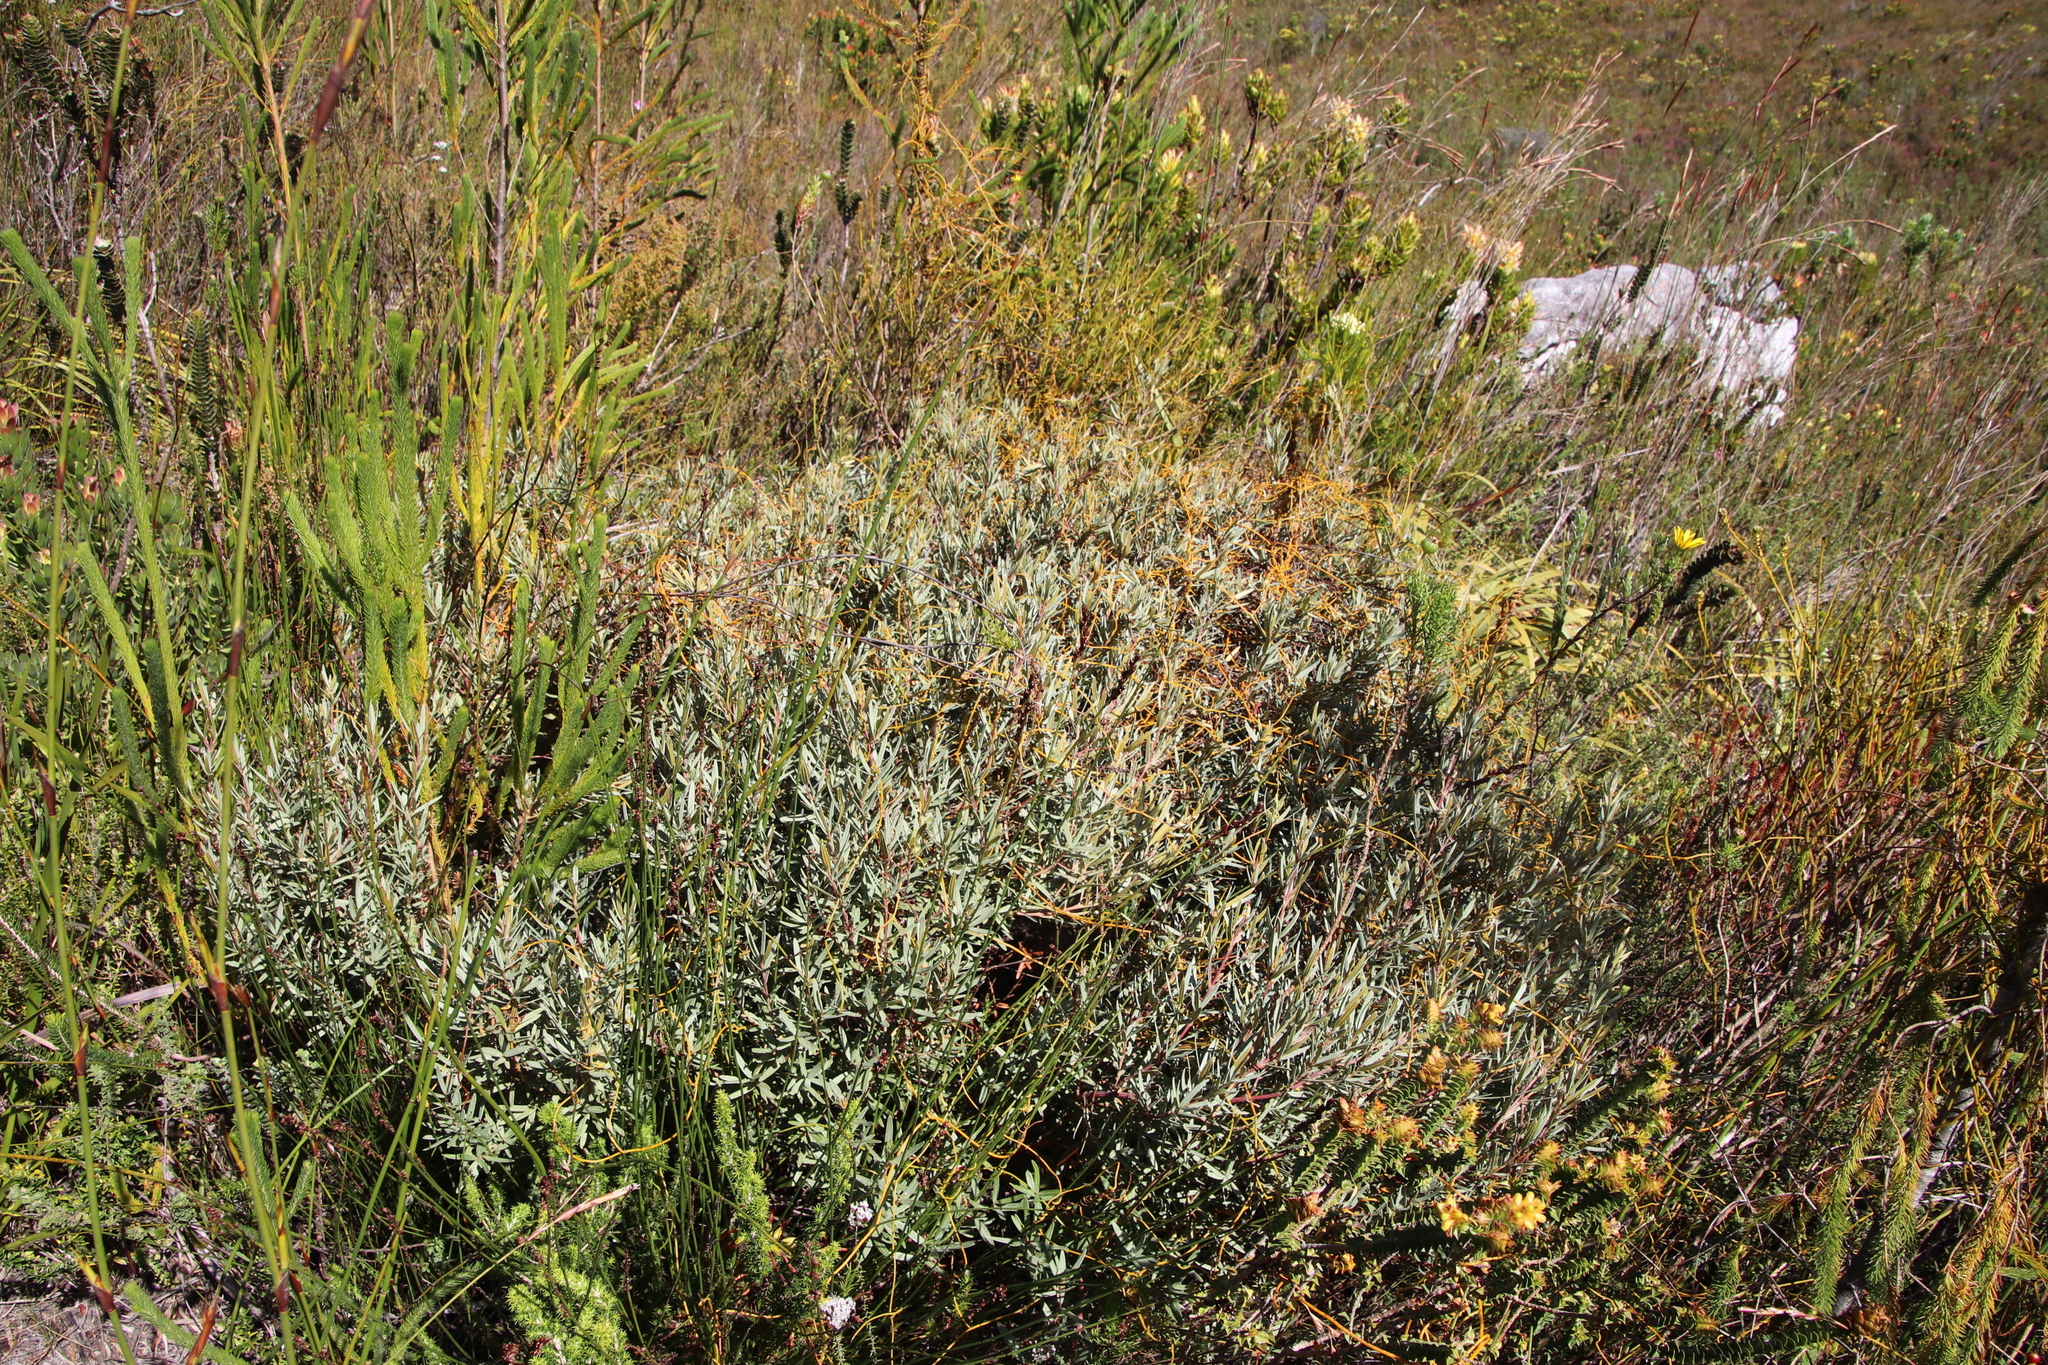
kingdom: Plantae
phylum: Tracheophyta
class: Magnoliopsida
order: Cornales
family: Grubbiaceae
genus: Grubbia
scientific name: Grubbia tomentosa
